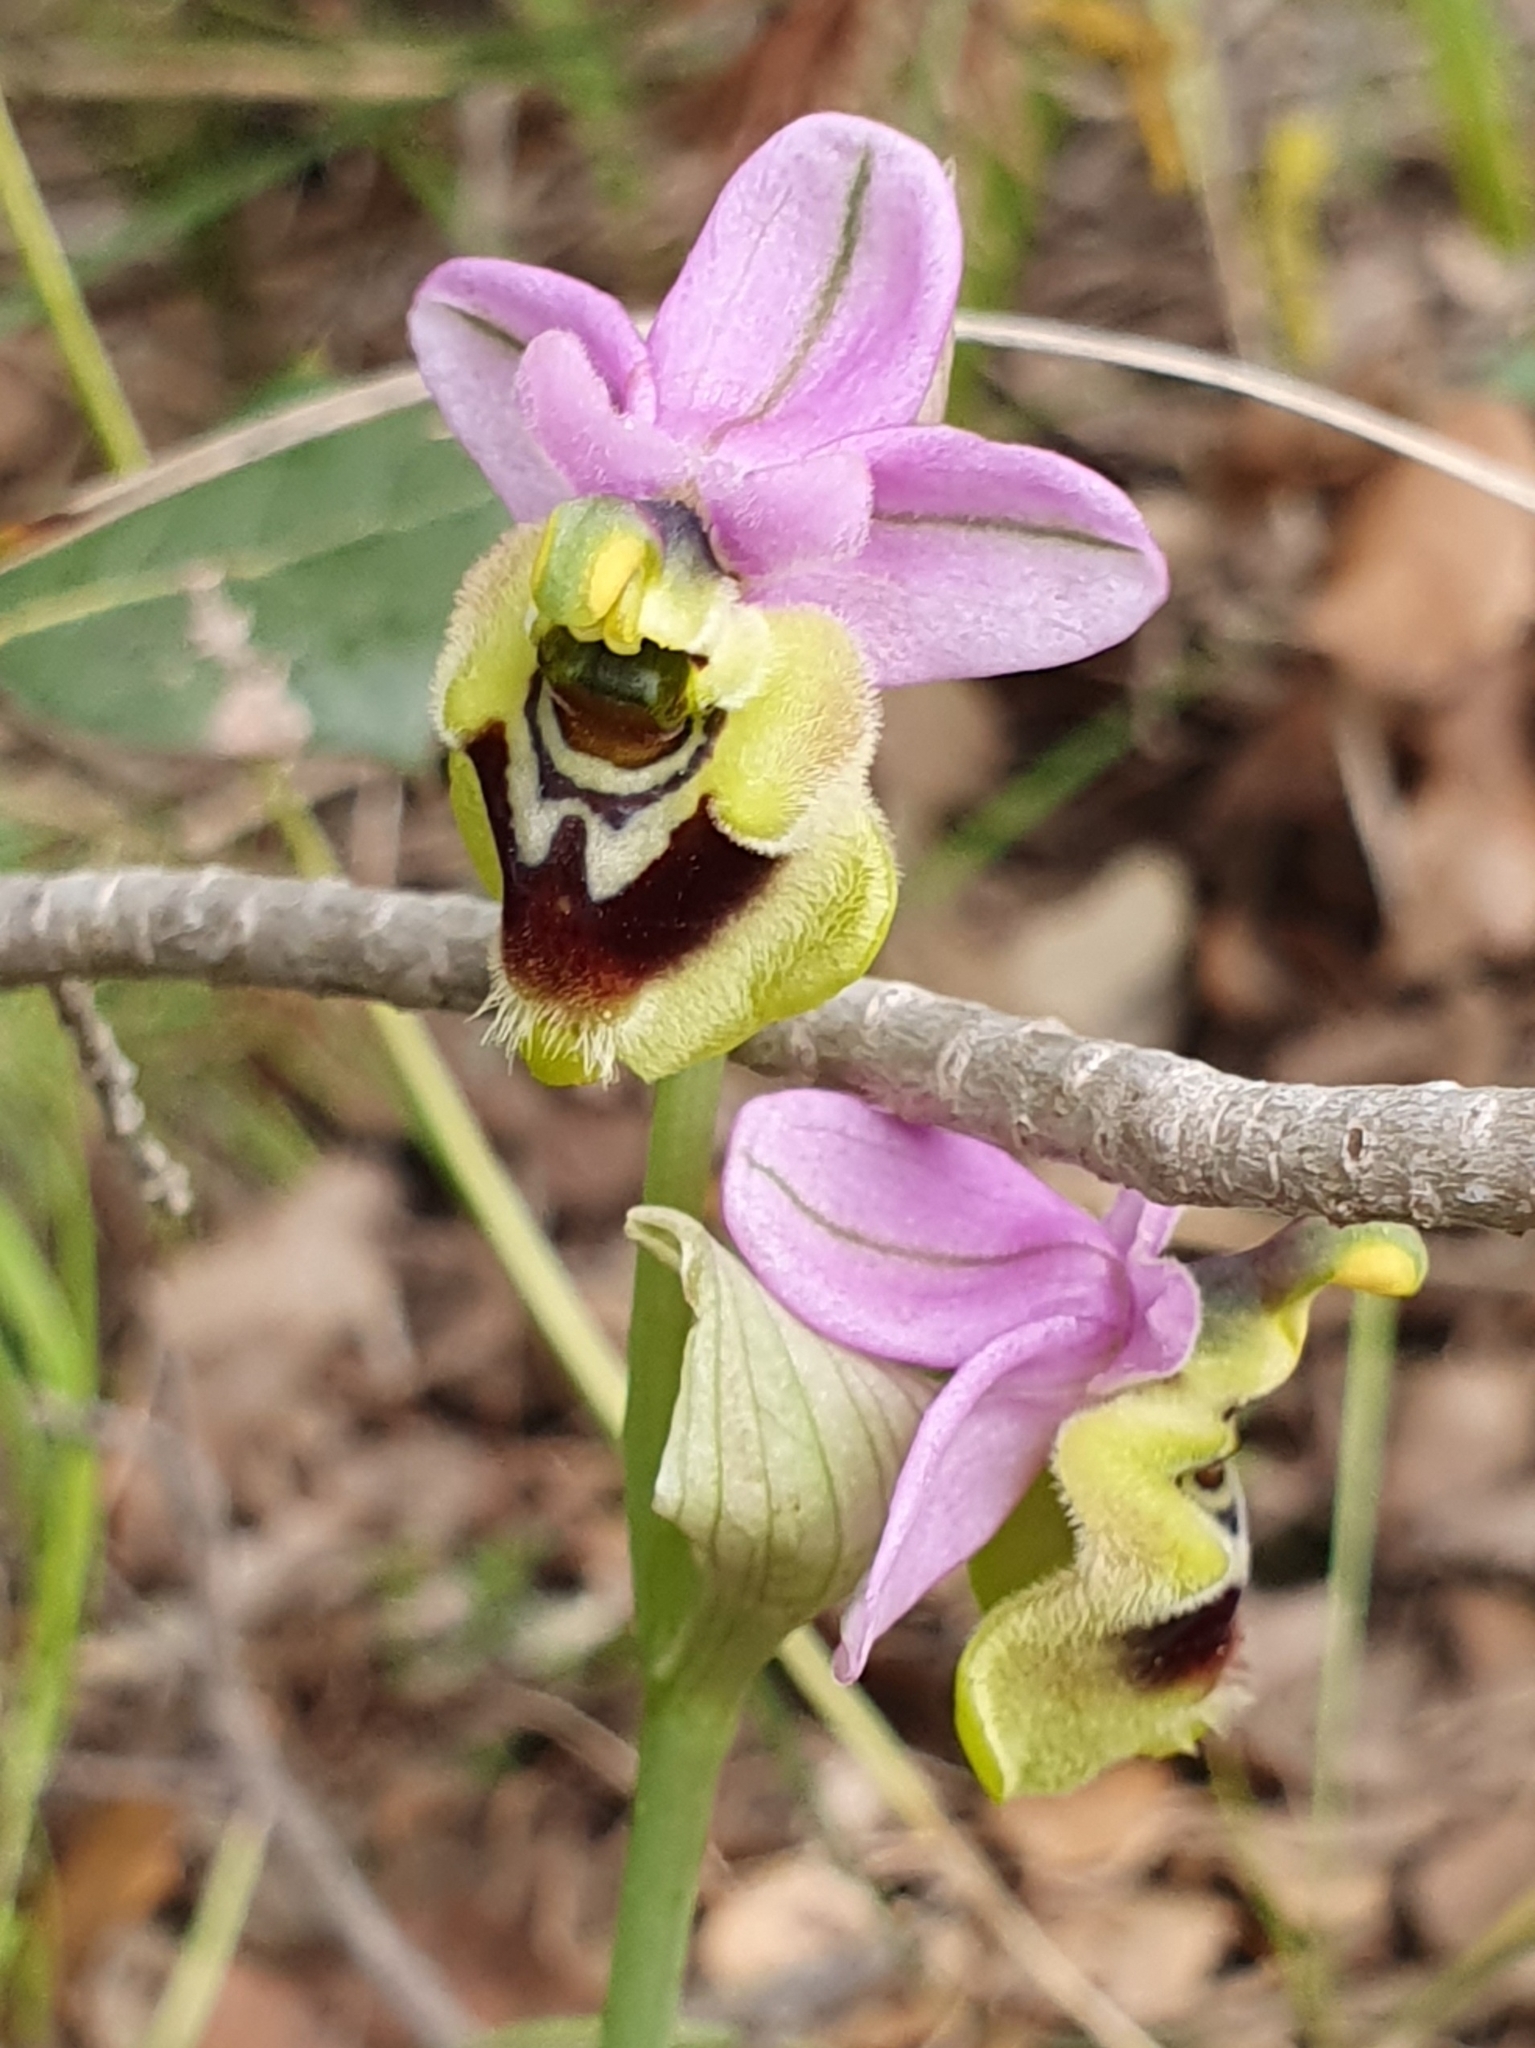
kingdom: Plantae
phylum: Tracheophyta
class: Liliopsida
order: Asparagales
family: Orchidaceae
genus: Ophrys
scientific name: Ophrys tenthredinifera
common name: Sawfly orchid
